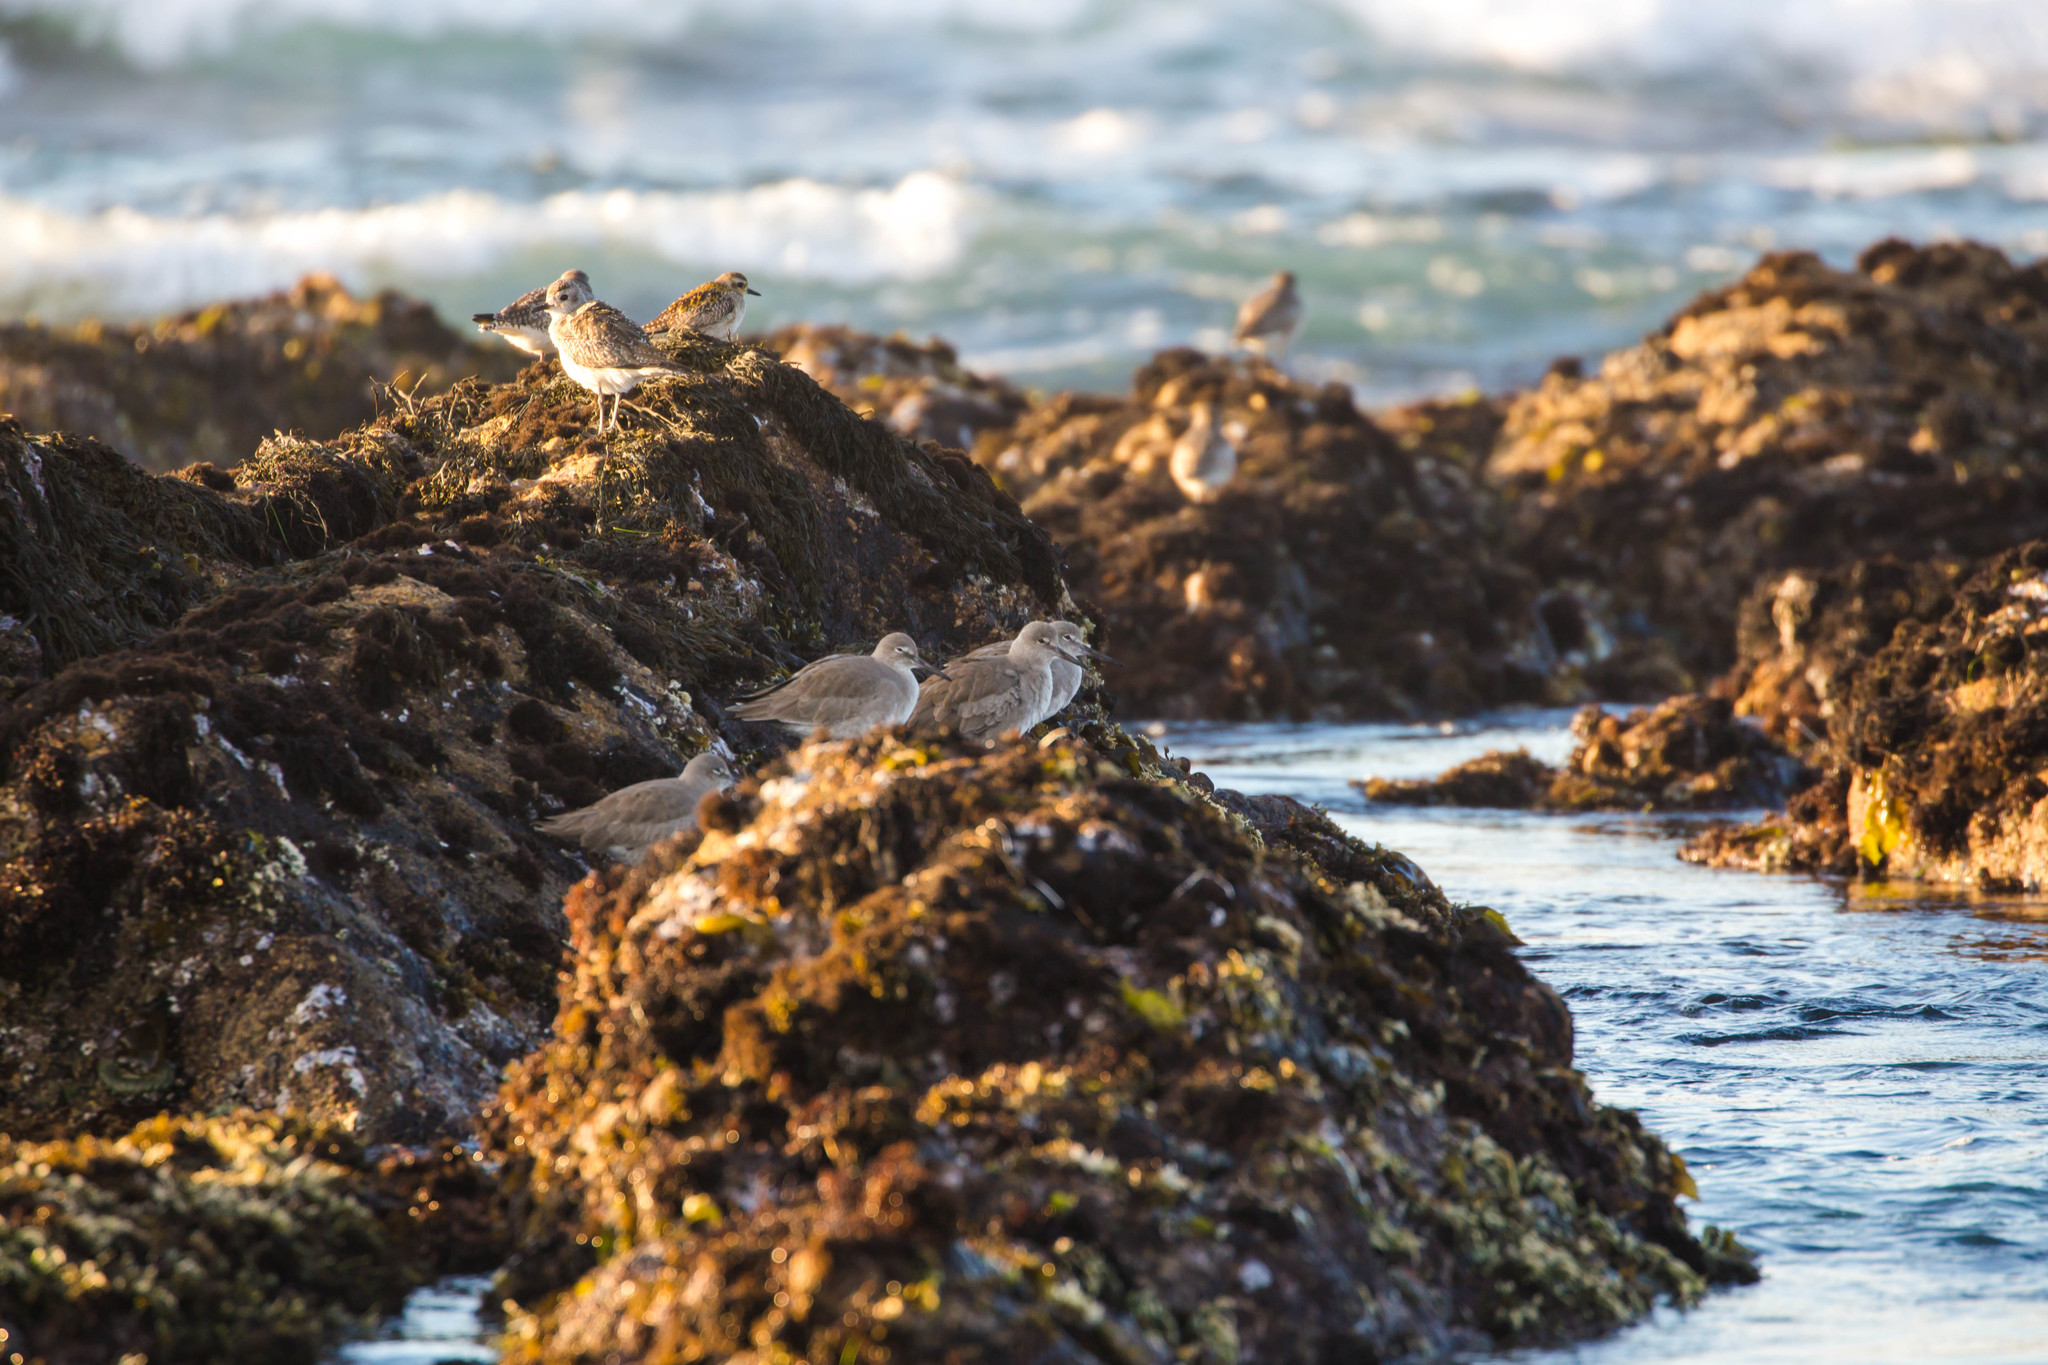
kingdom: Animalia
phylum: Chordata
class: Aves
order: Charadriiformes
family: Scolopacidae
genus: Tringa
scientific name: Tringa semipalmata
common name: Willet
